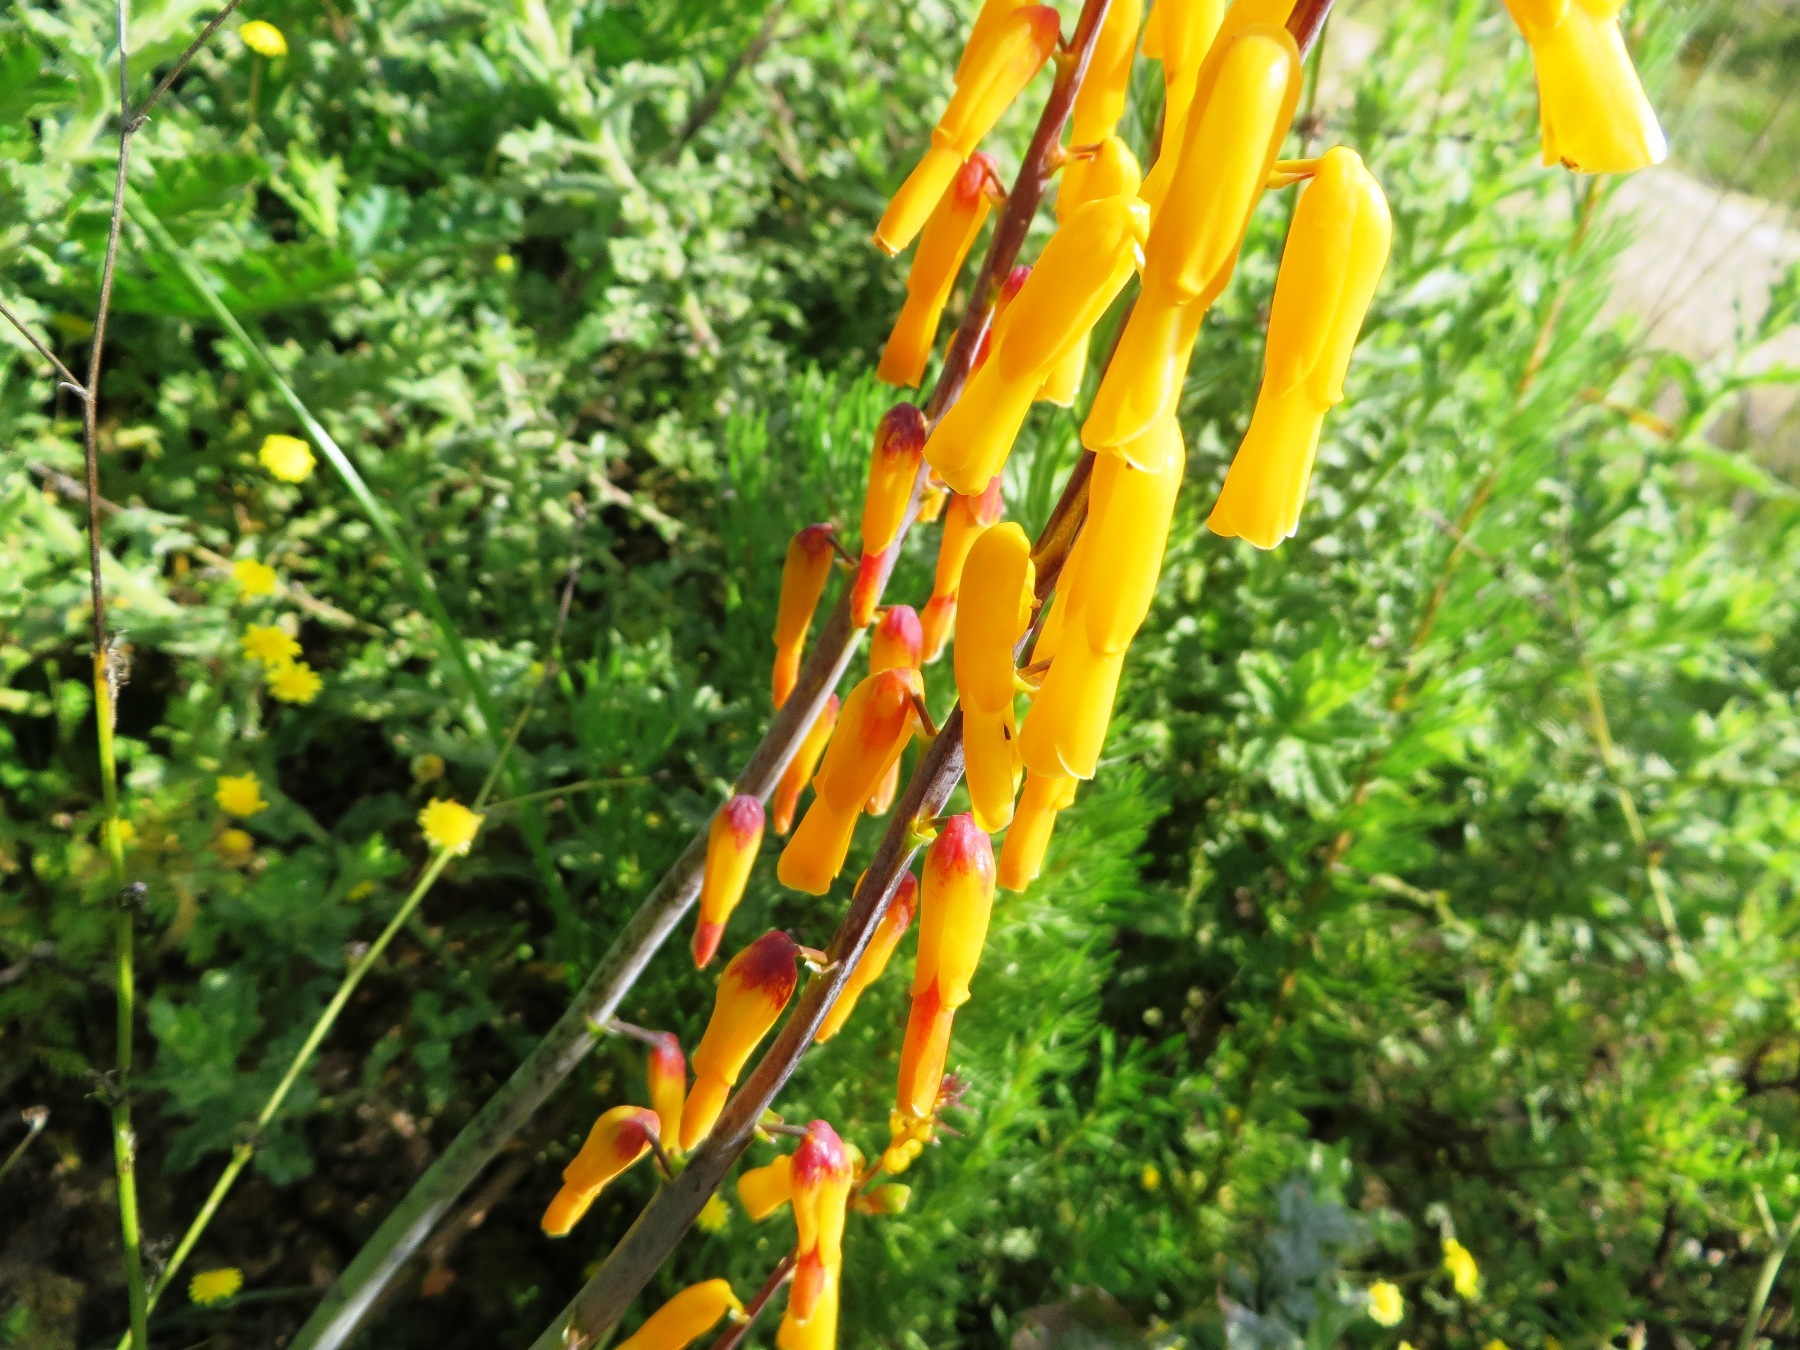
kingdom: Plantae
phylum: Tracheophyta
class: Liliopsida
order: Asparagales
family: Asparagaceae
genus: Lachenalia
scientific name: Lachenalia flava
